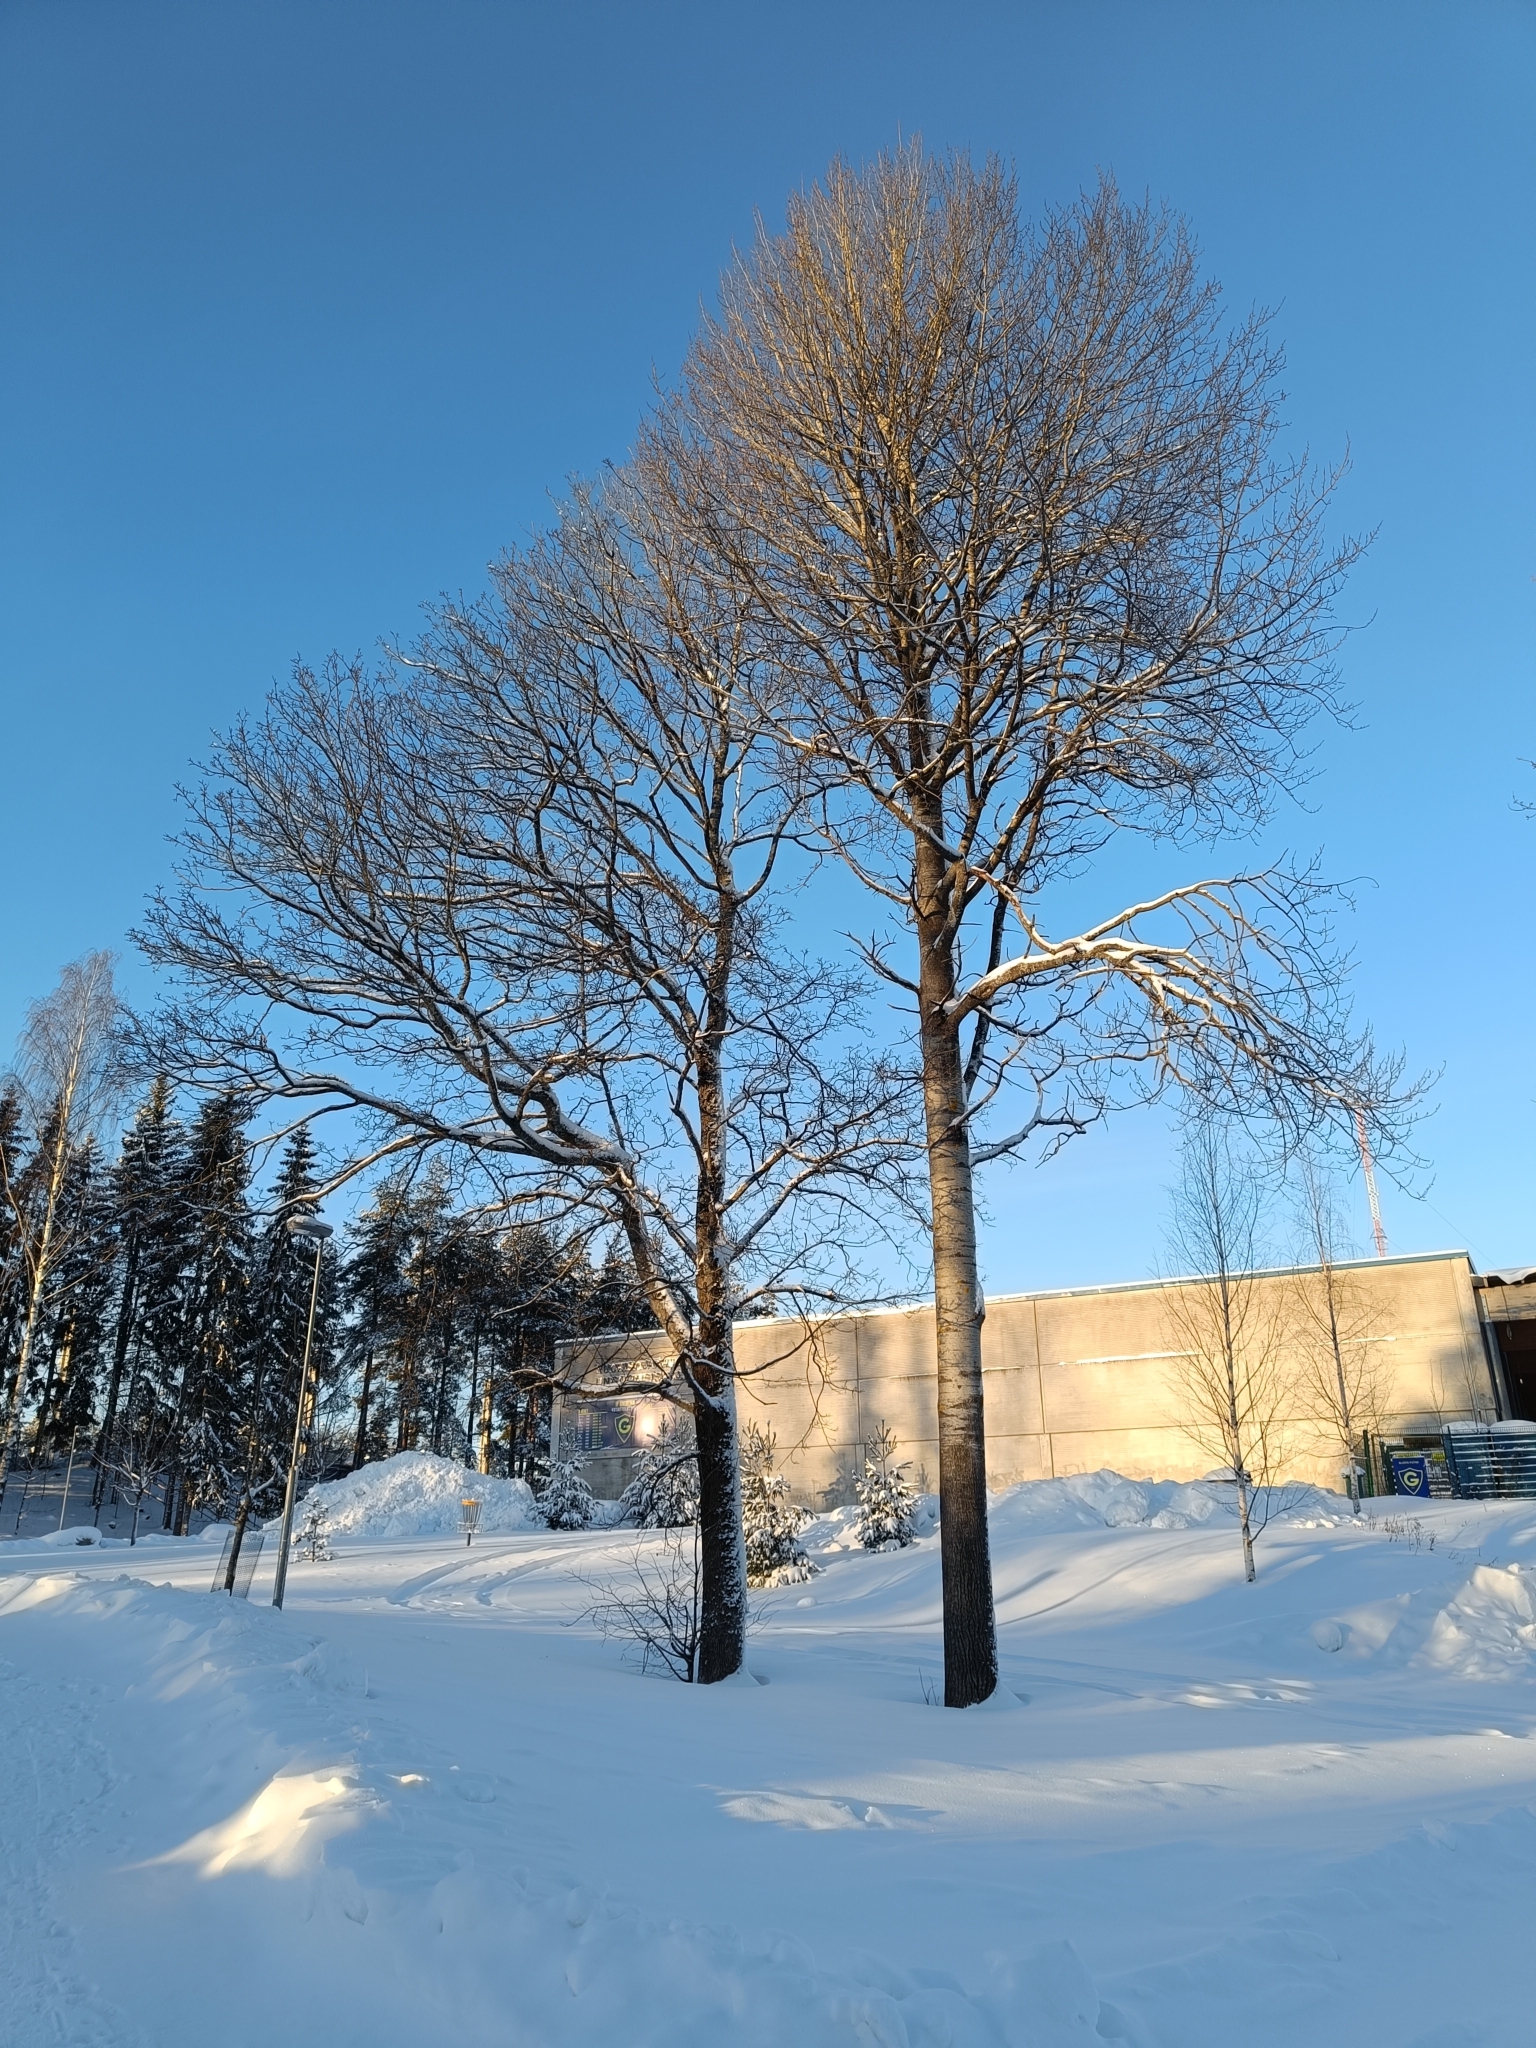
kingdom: Plantae
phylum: Tracheophyta
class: Magnoliopsida
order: Malpighiales
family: Salicaceae
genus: Populus
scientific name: Populus tremula
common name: European aspen
